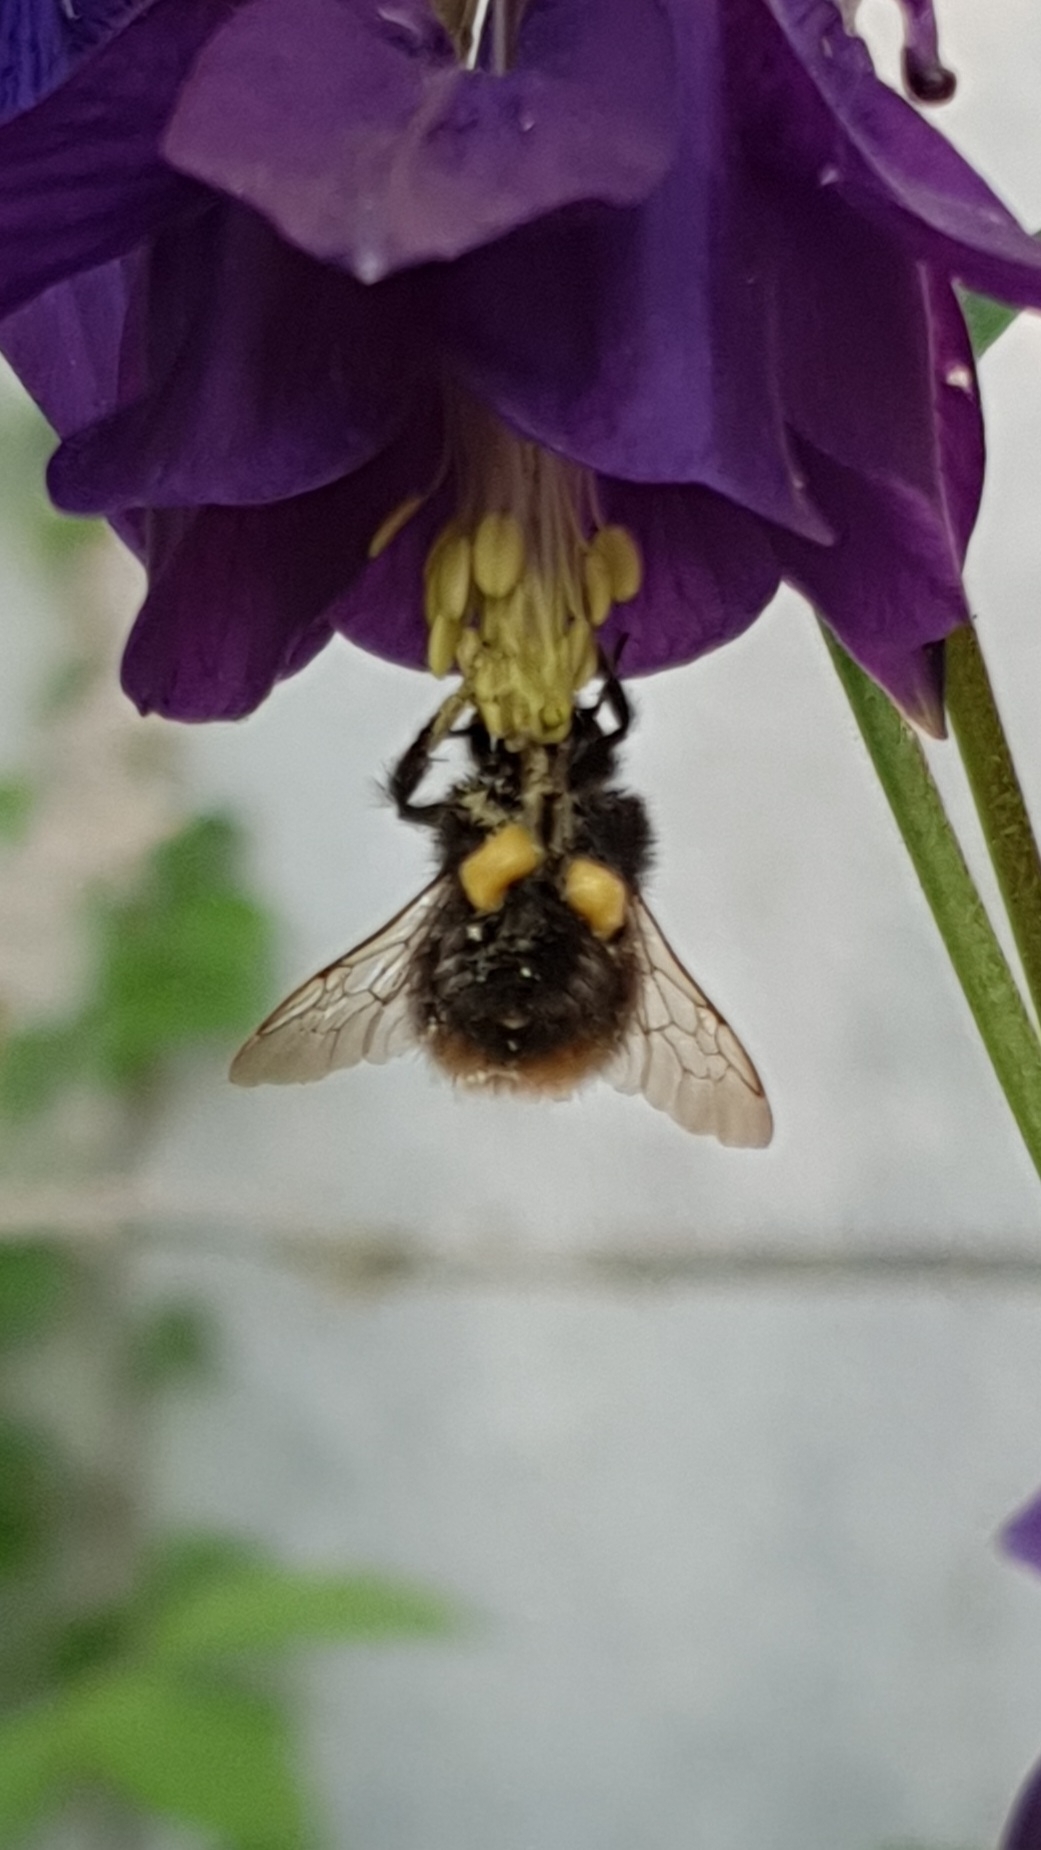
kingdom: Animalia
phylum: Arthropoda
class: Insecta
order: Hymenoptera
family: Apidae
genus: Bombus
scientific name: Bombus pratorum
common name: Early humble-bee
